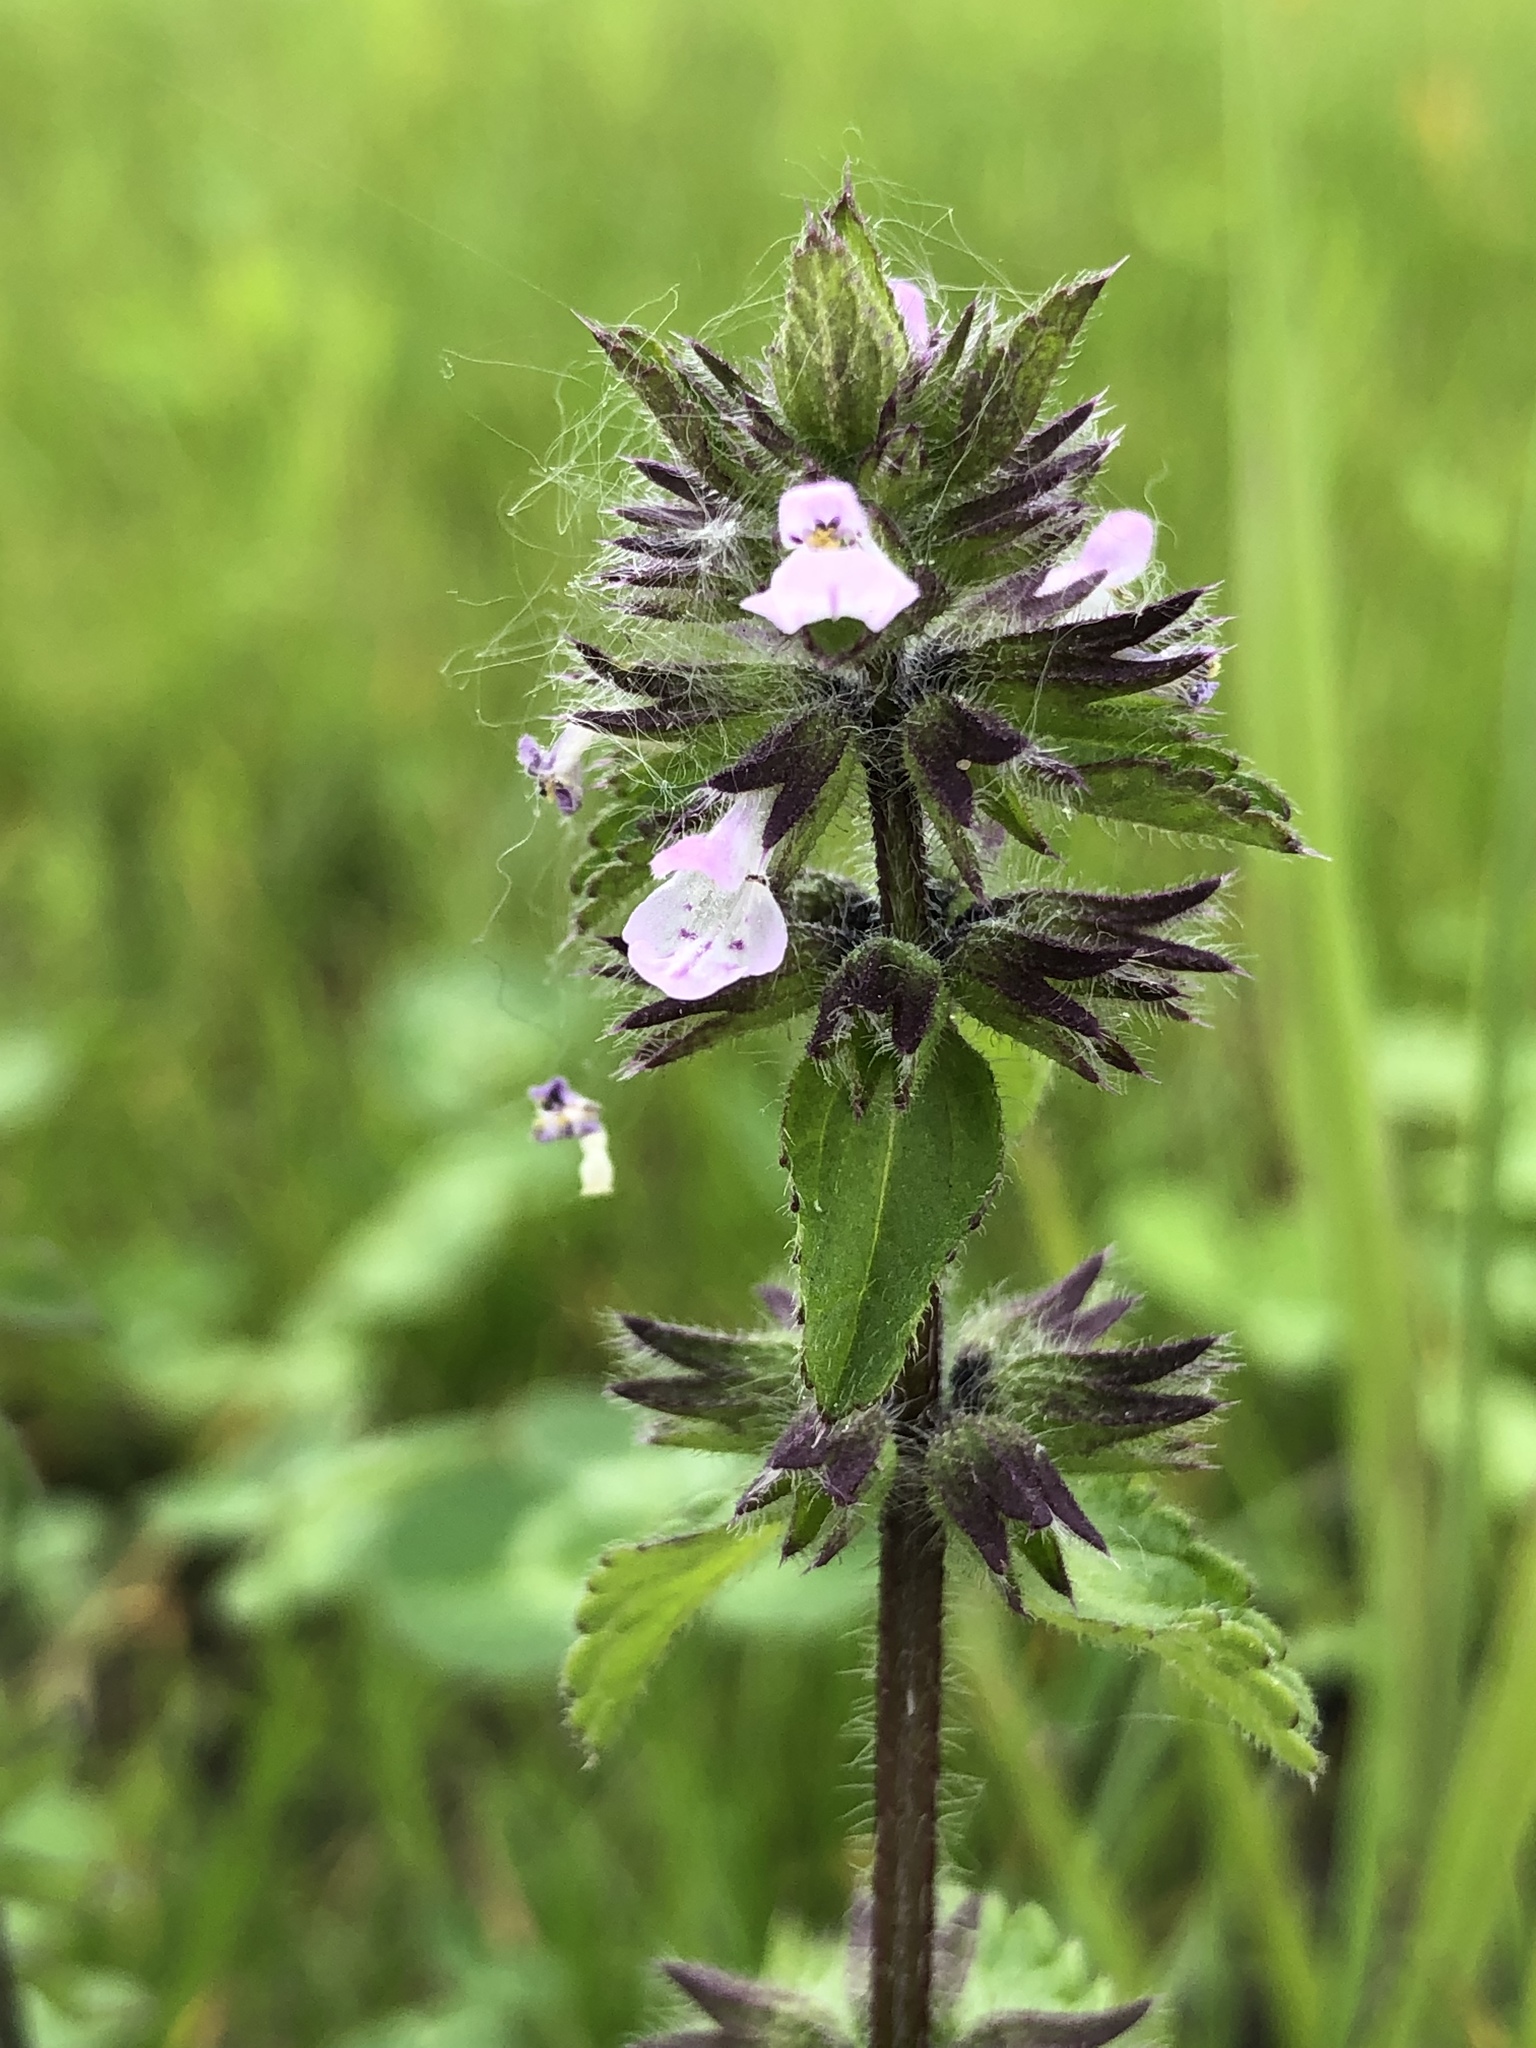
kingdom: Plantae
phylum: Tracheophyta
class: Magnoliopsida
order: Lamiales
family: Lamiaceae
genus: Stachys
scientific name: Stachys arvensis
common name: Field woundwort
